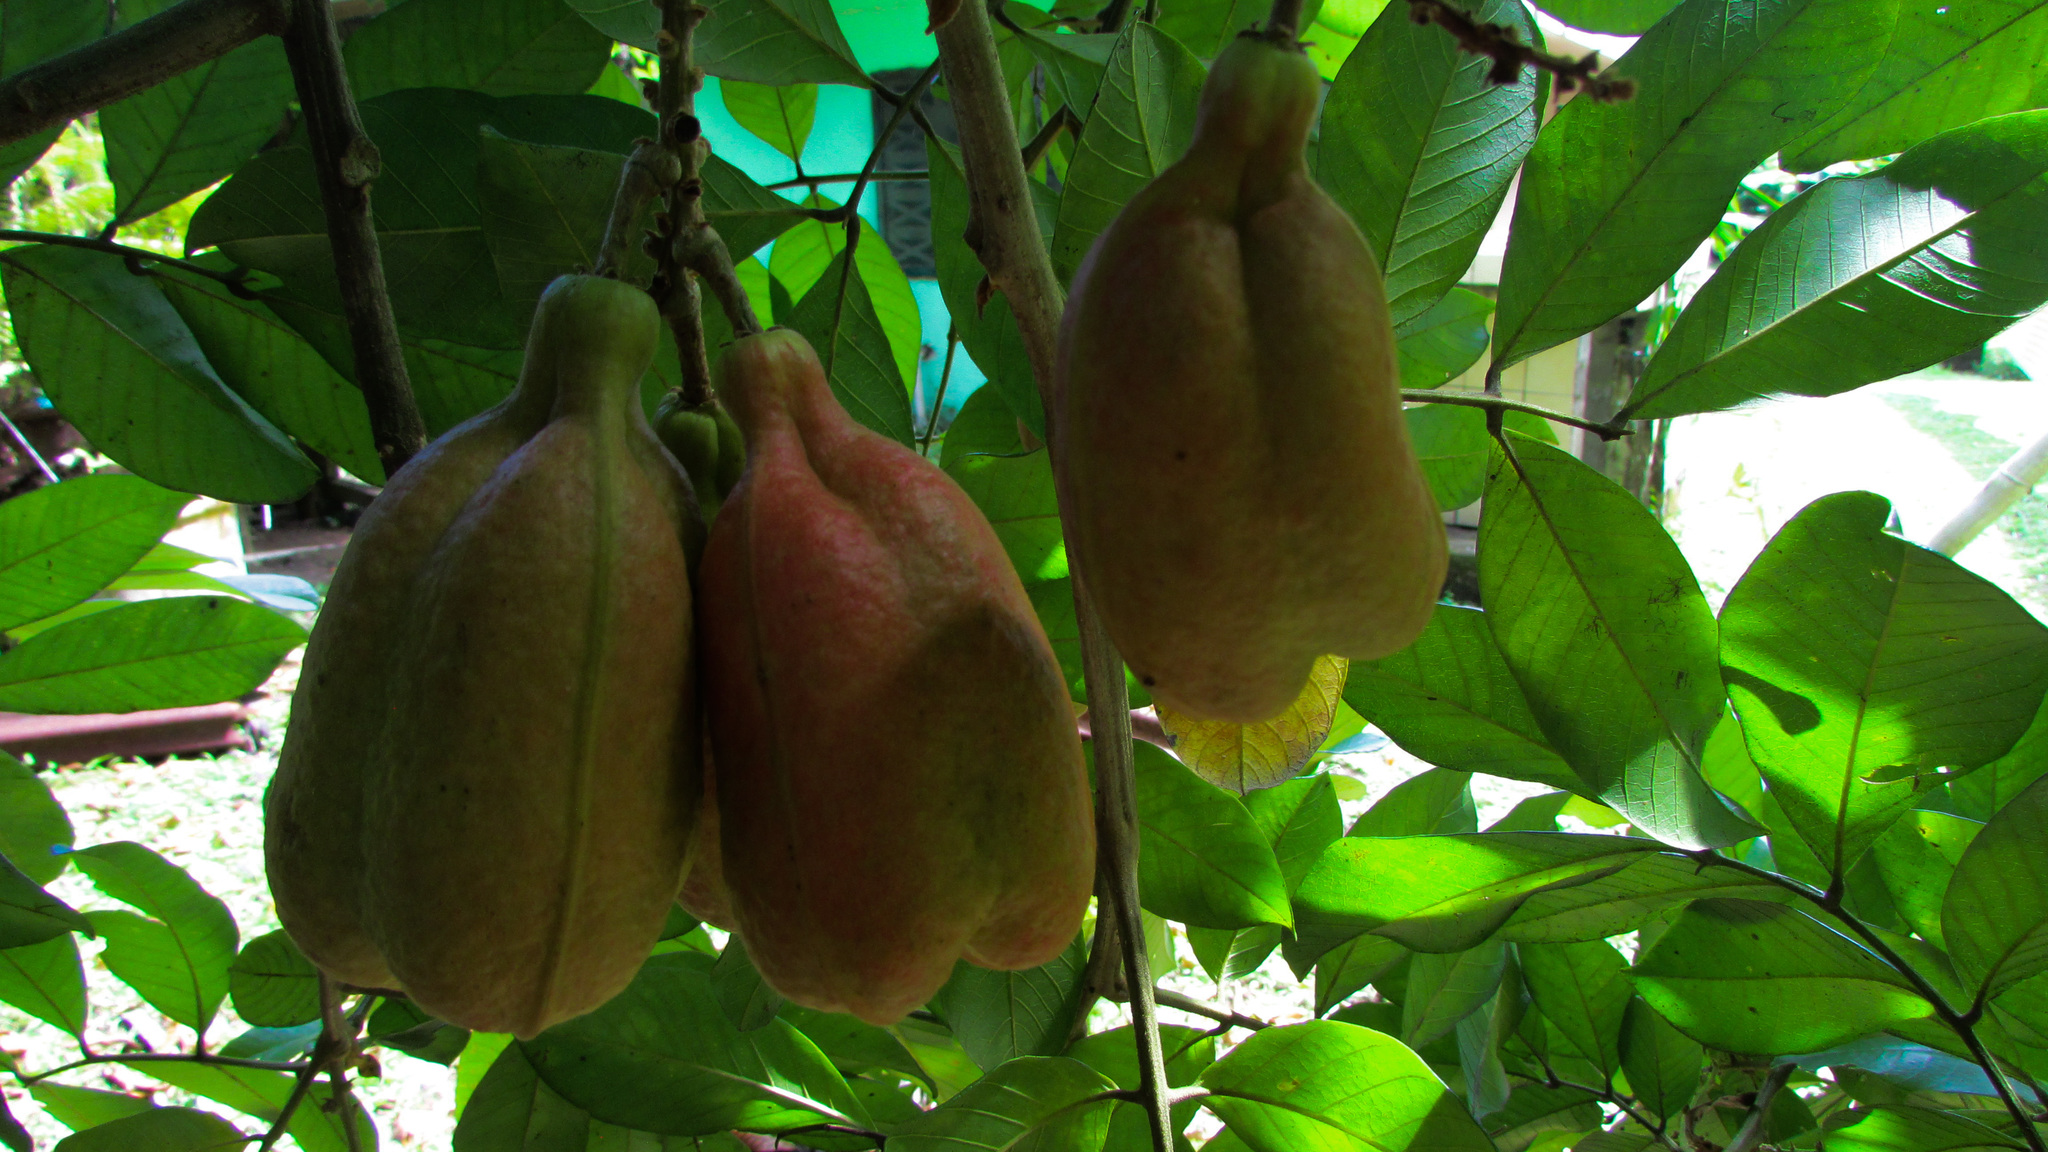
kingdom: Plantae
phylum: Tracheophyta
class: Magnoliopsida
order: Sapindales
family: Sapindaceae
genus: Blighia
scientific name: Blighia sapida
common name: Akee
